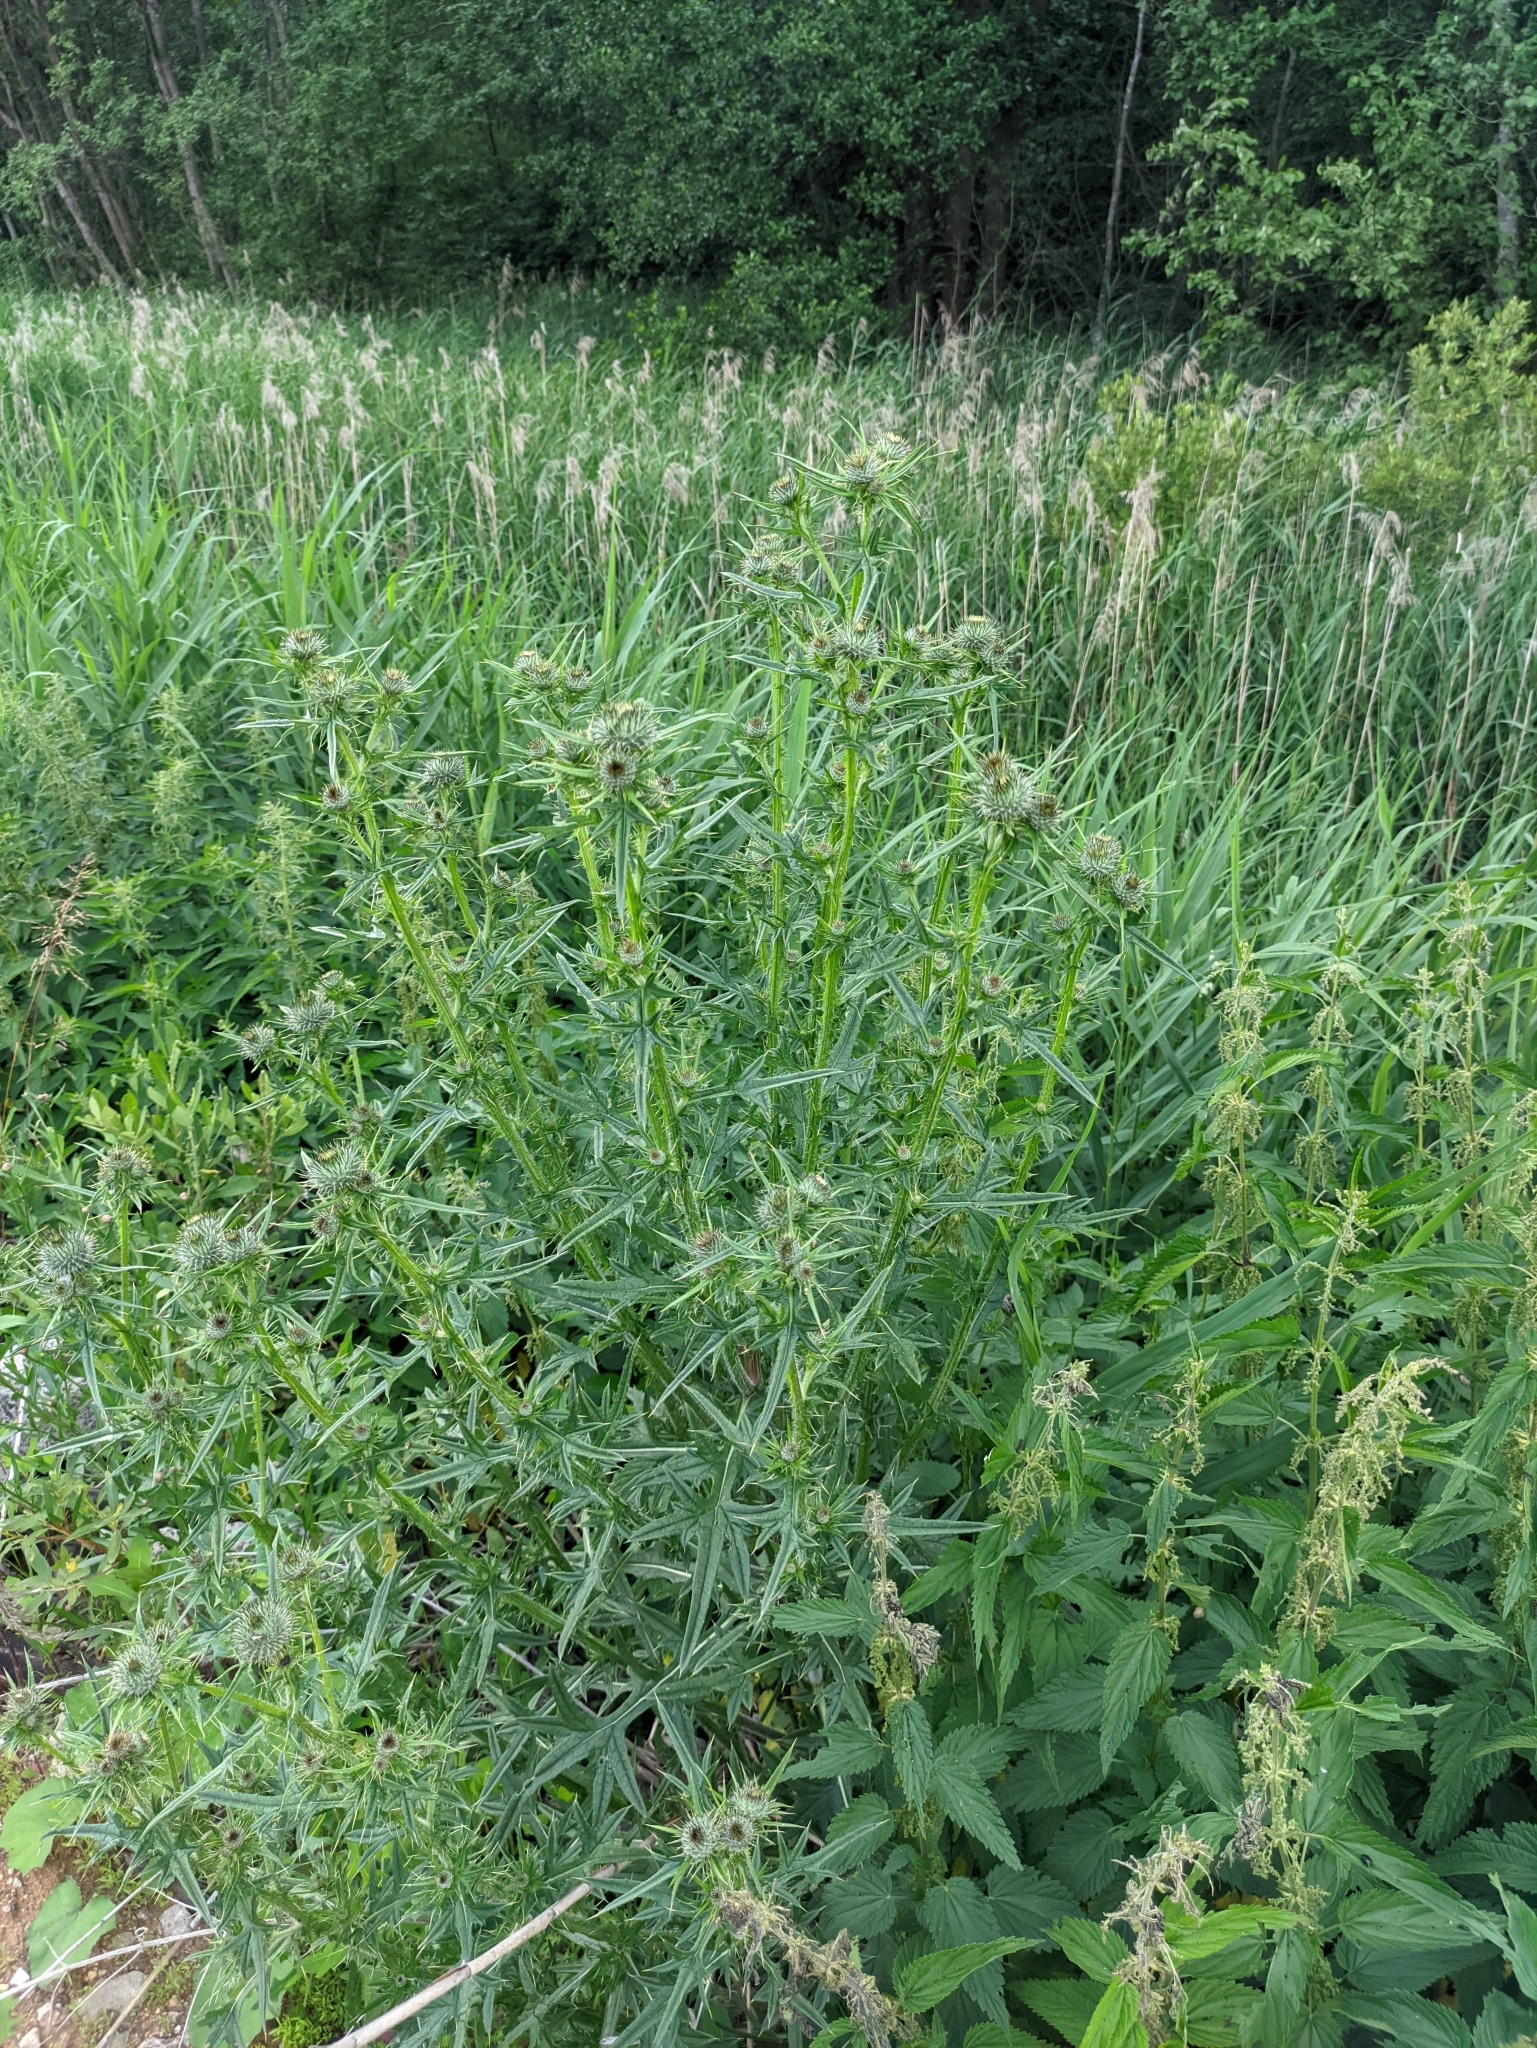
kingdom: Plantae
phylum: Tracheophyta
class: Magnoliopsida
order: Asterales
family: Asteraceae
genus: Cirsium
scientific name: Cirsium vulgare
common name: Bull thistle
